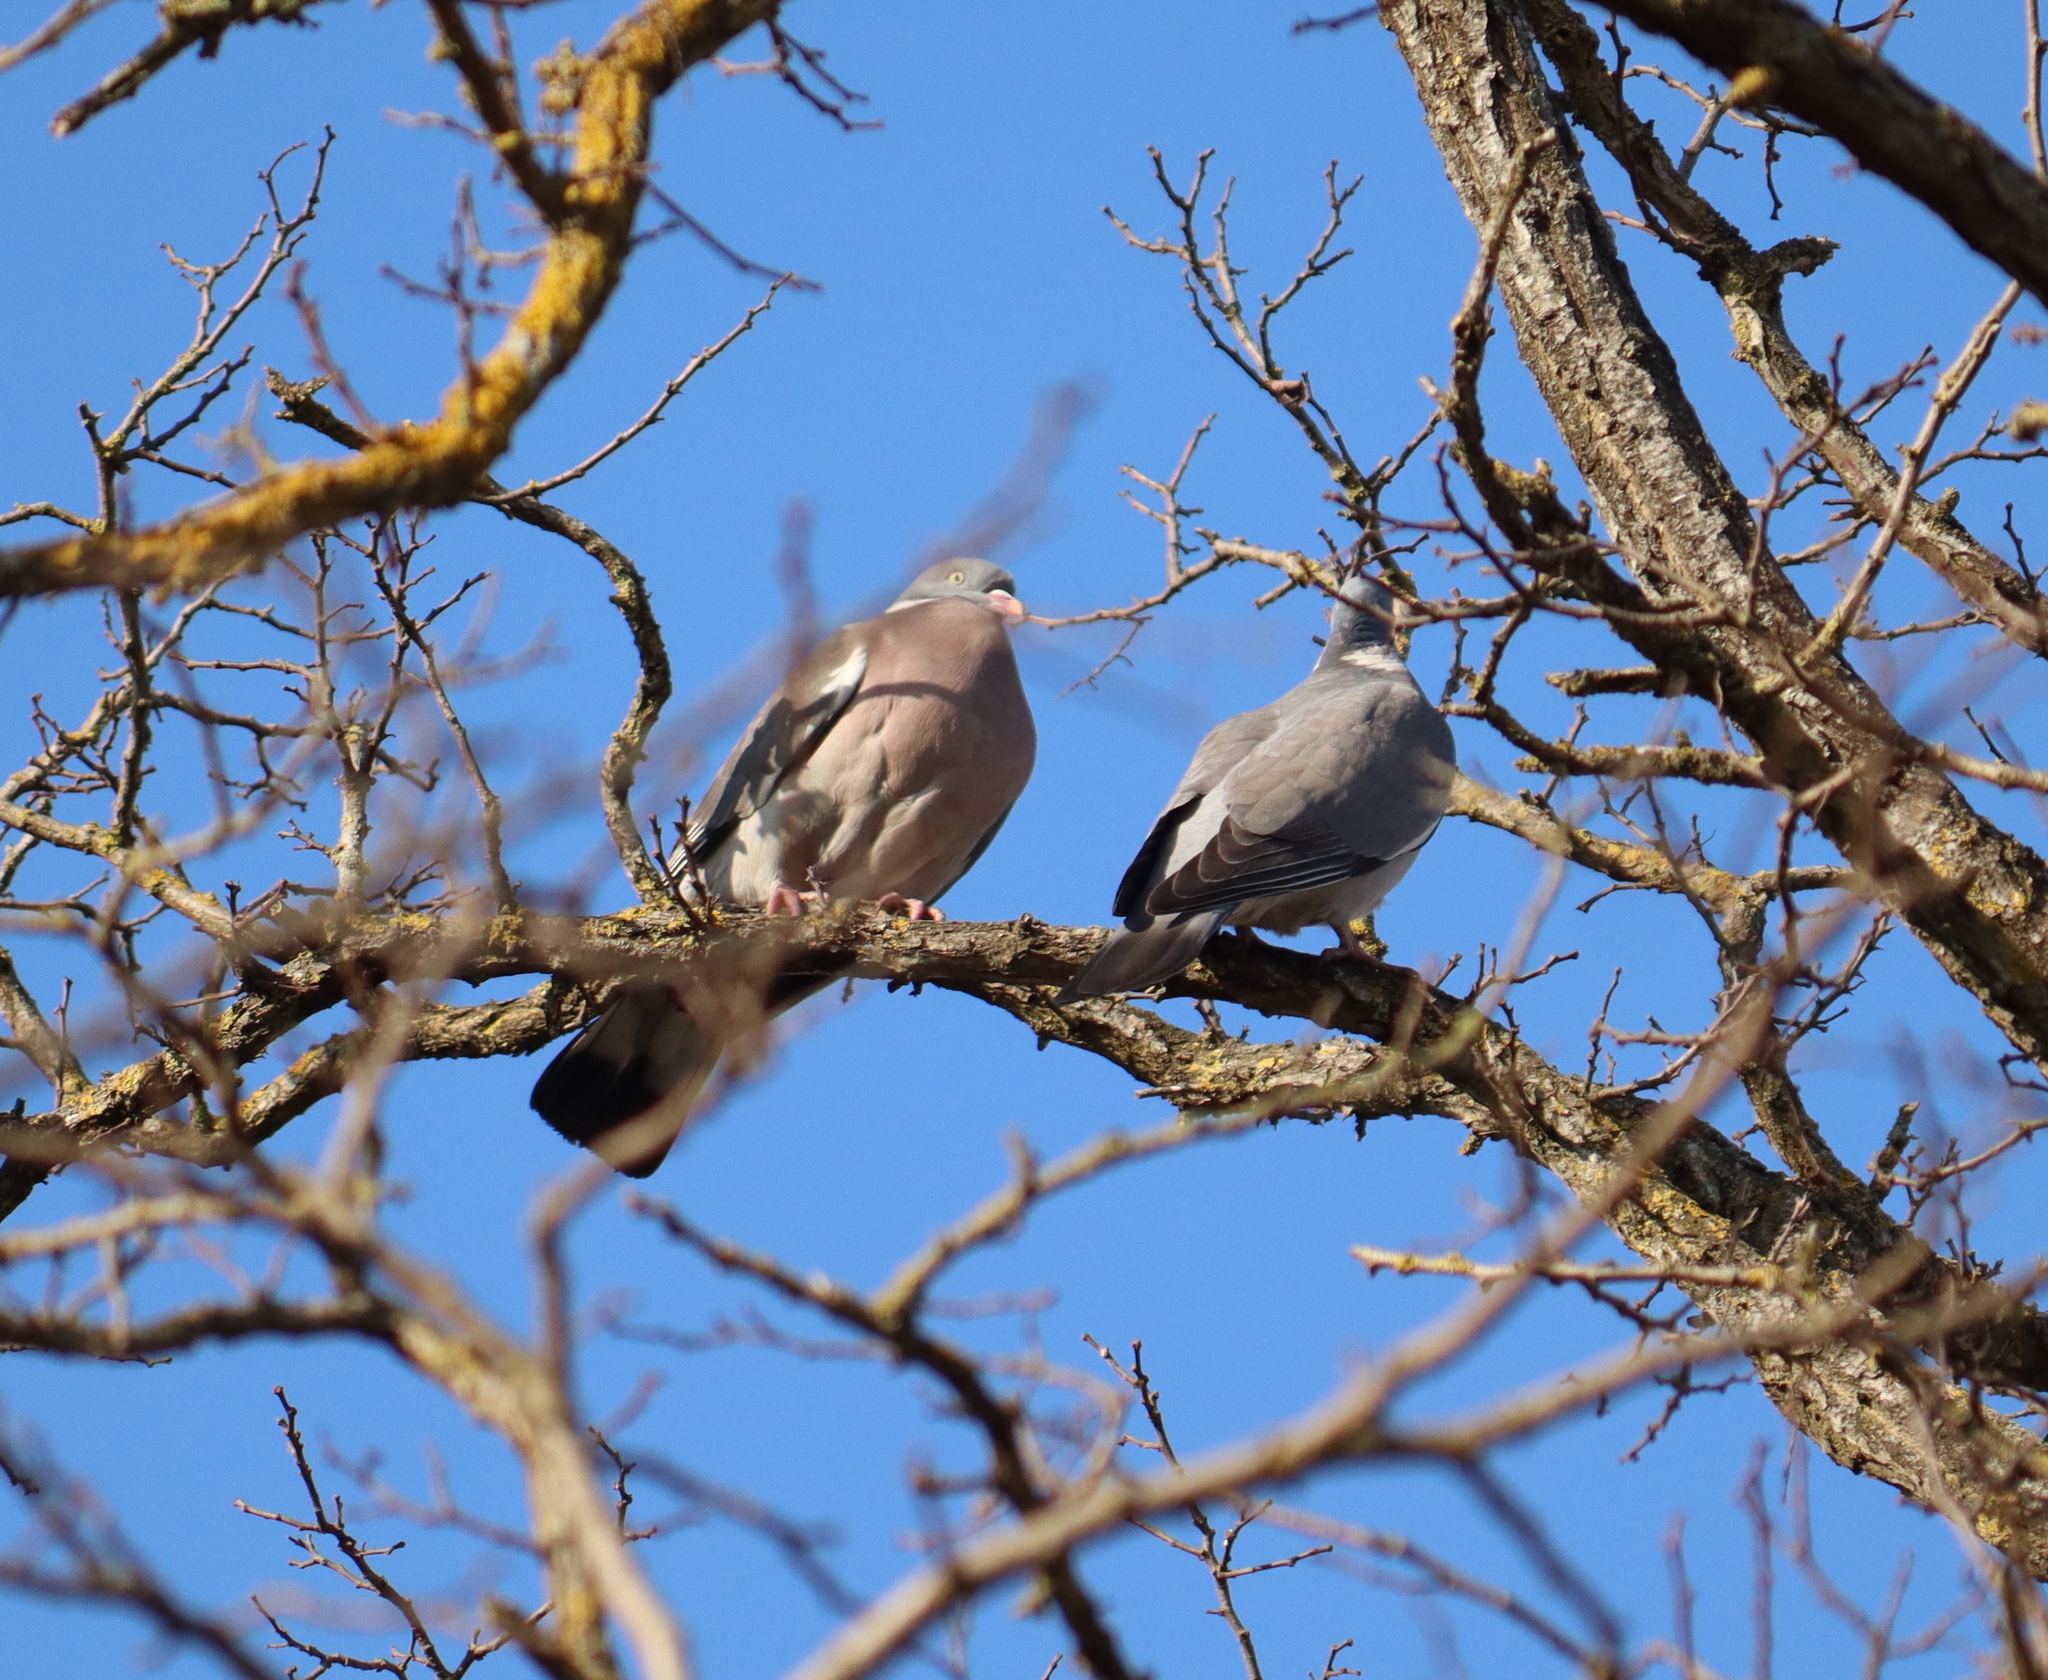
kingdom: Animalia
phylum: Chordata
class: Aves
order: Columbiformes
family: Columbidae
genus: Columba
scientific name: Columba palumbus
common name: Common wood pigeon
